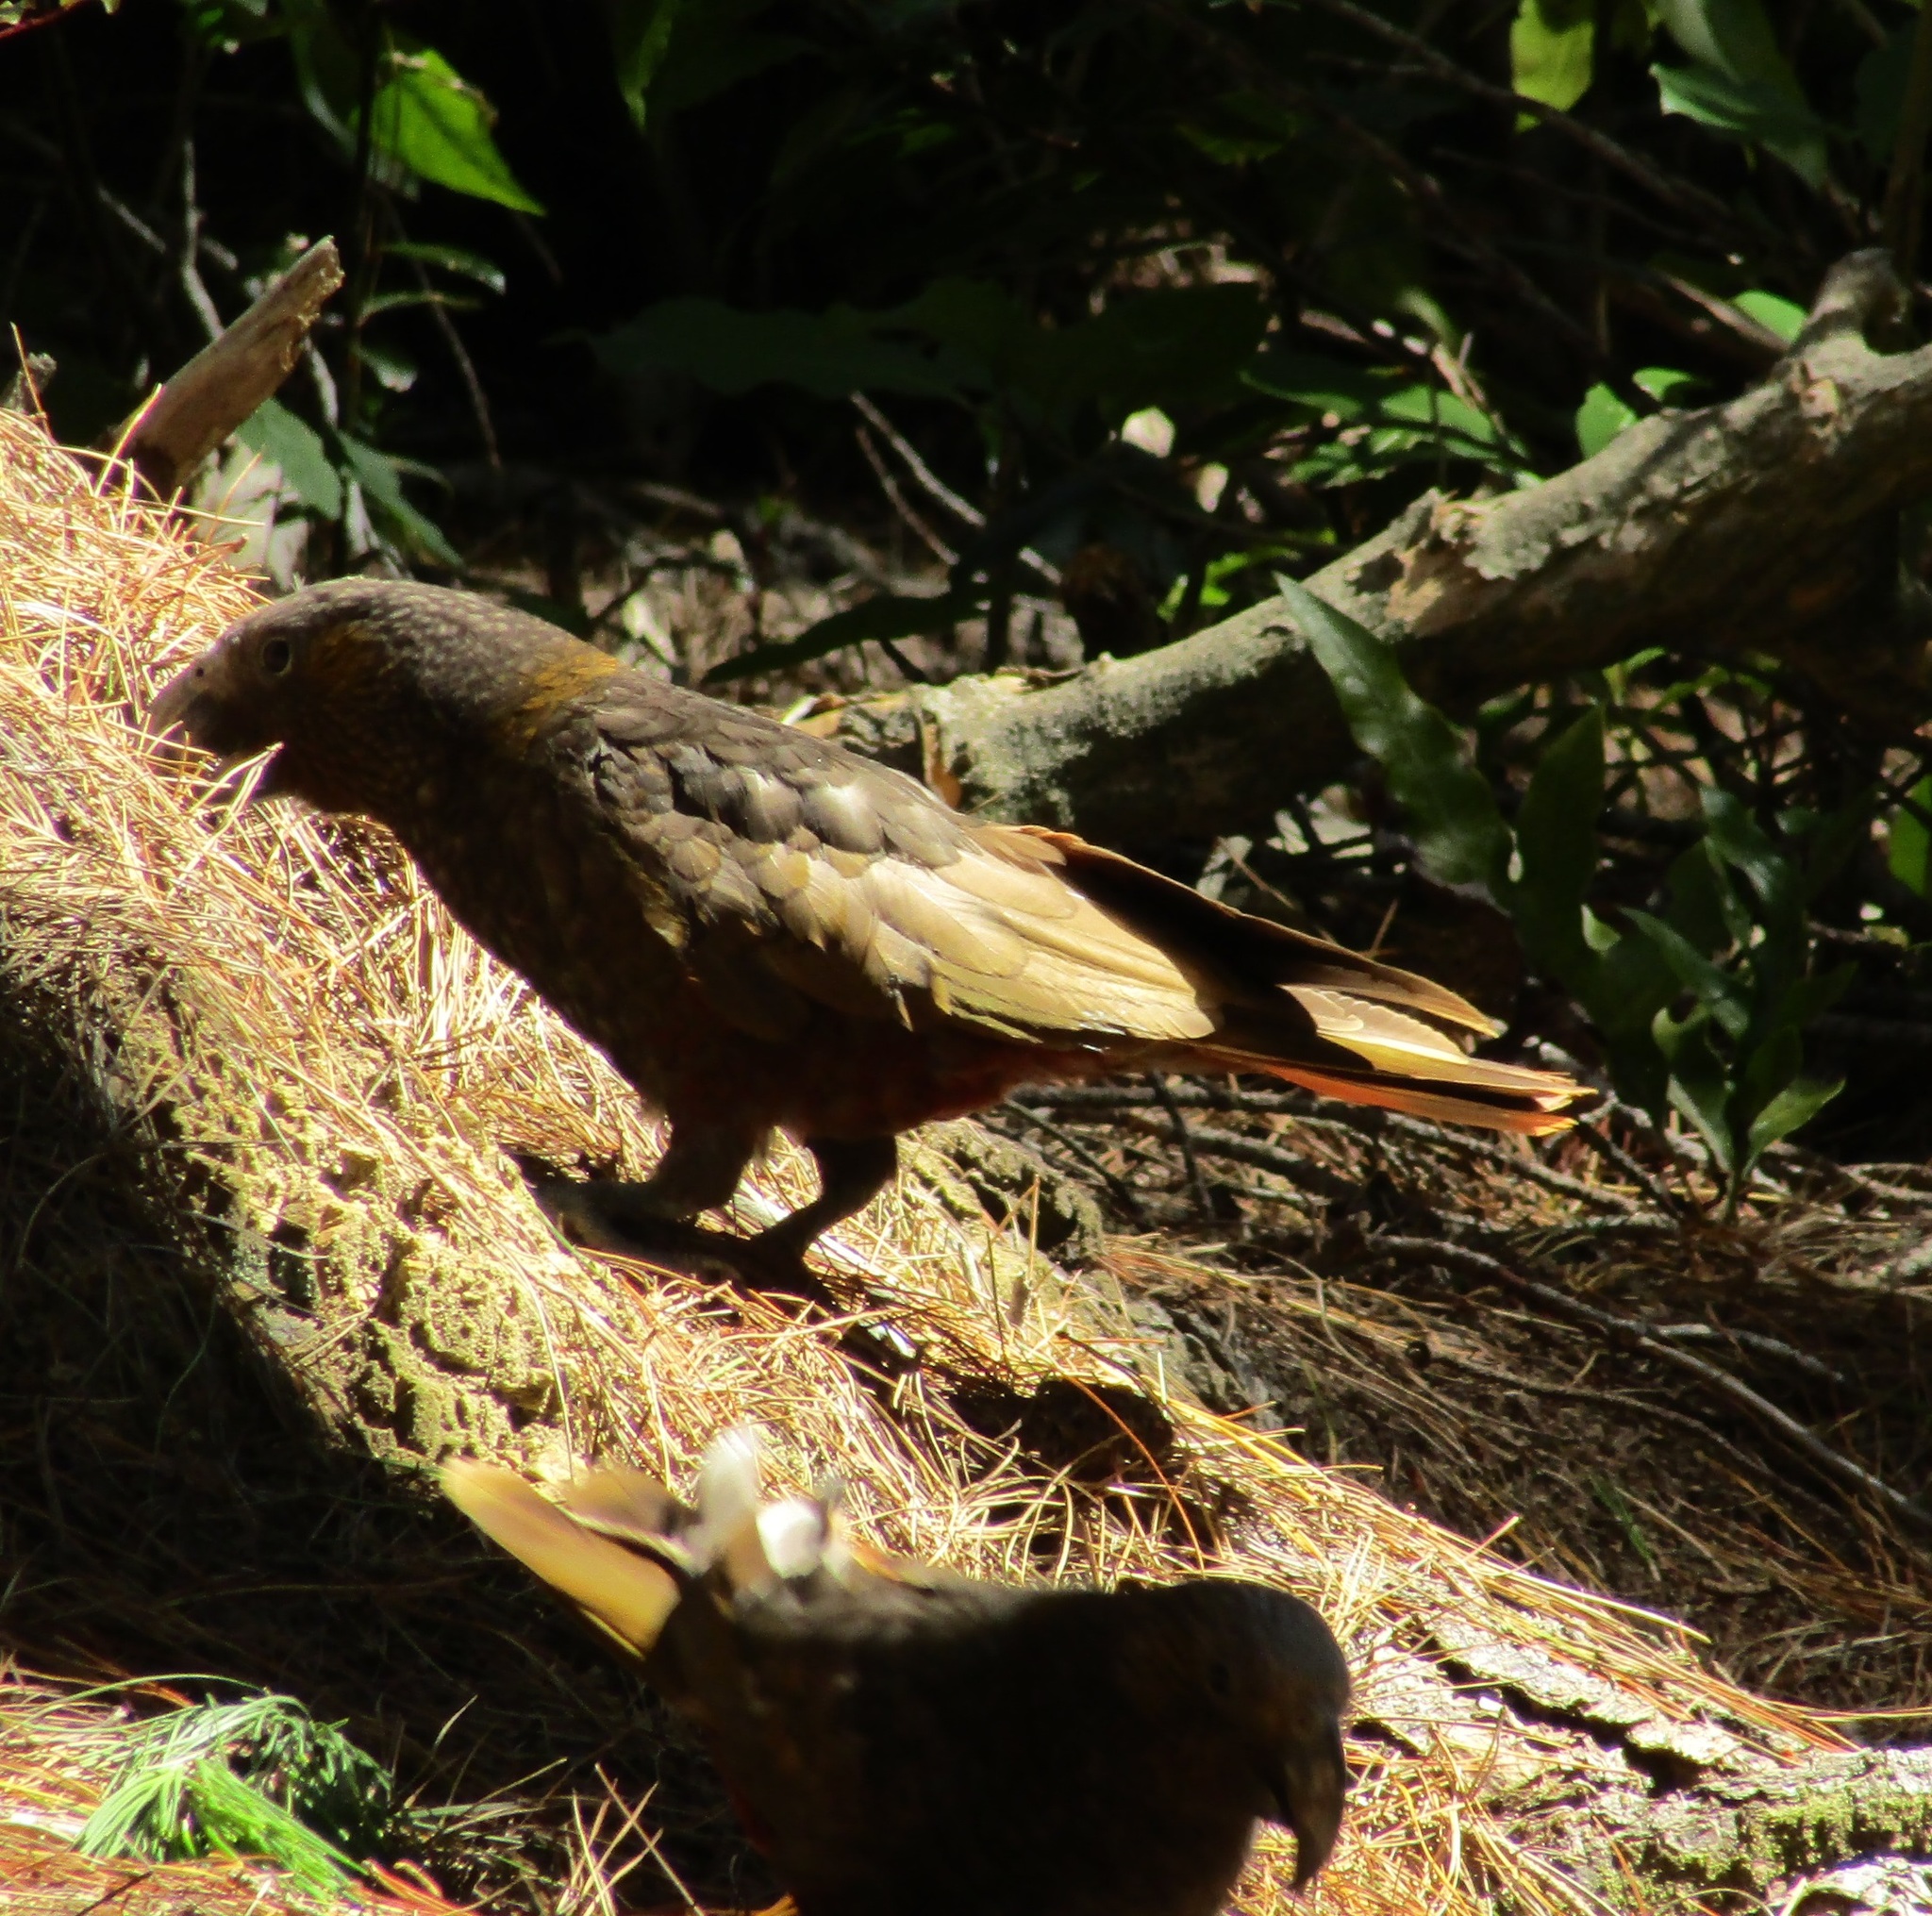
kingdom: Animalia
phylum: Chordata
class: Aves
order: Psittaciformes
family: Psittacidae
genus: Nestor
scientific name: Nestor meridionalis
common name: New zealand kaka
